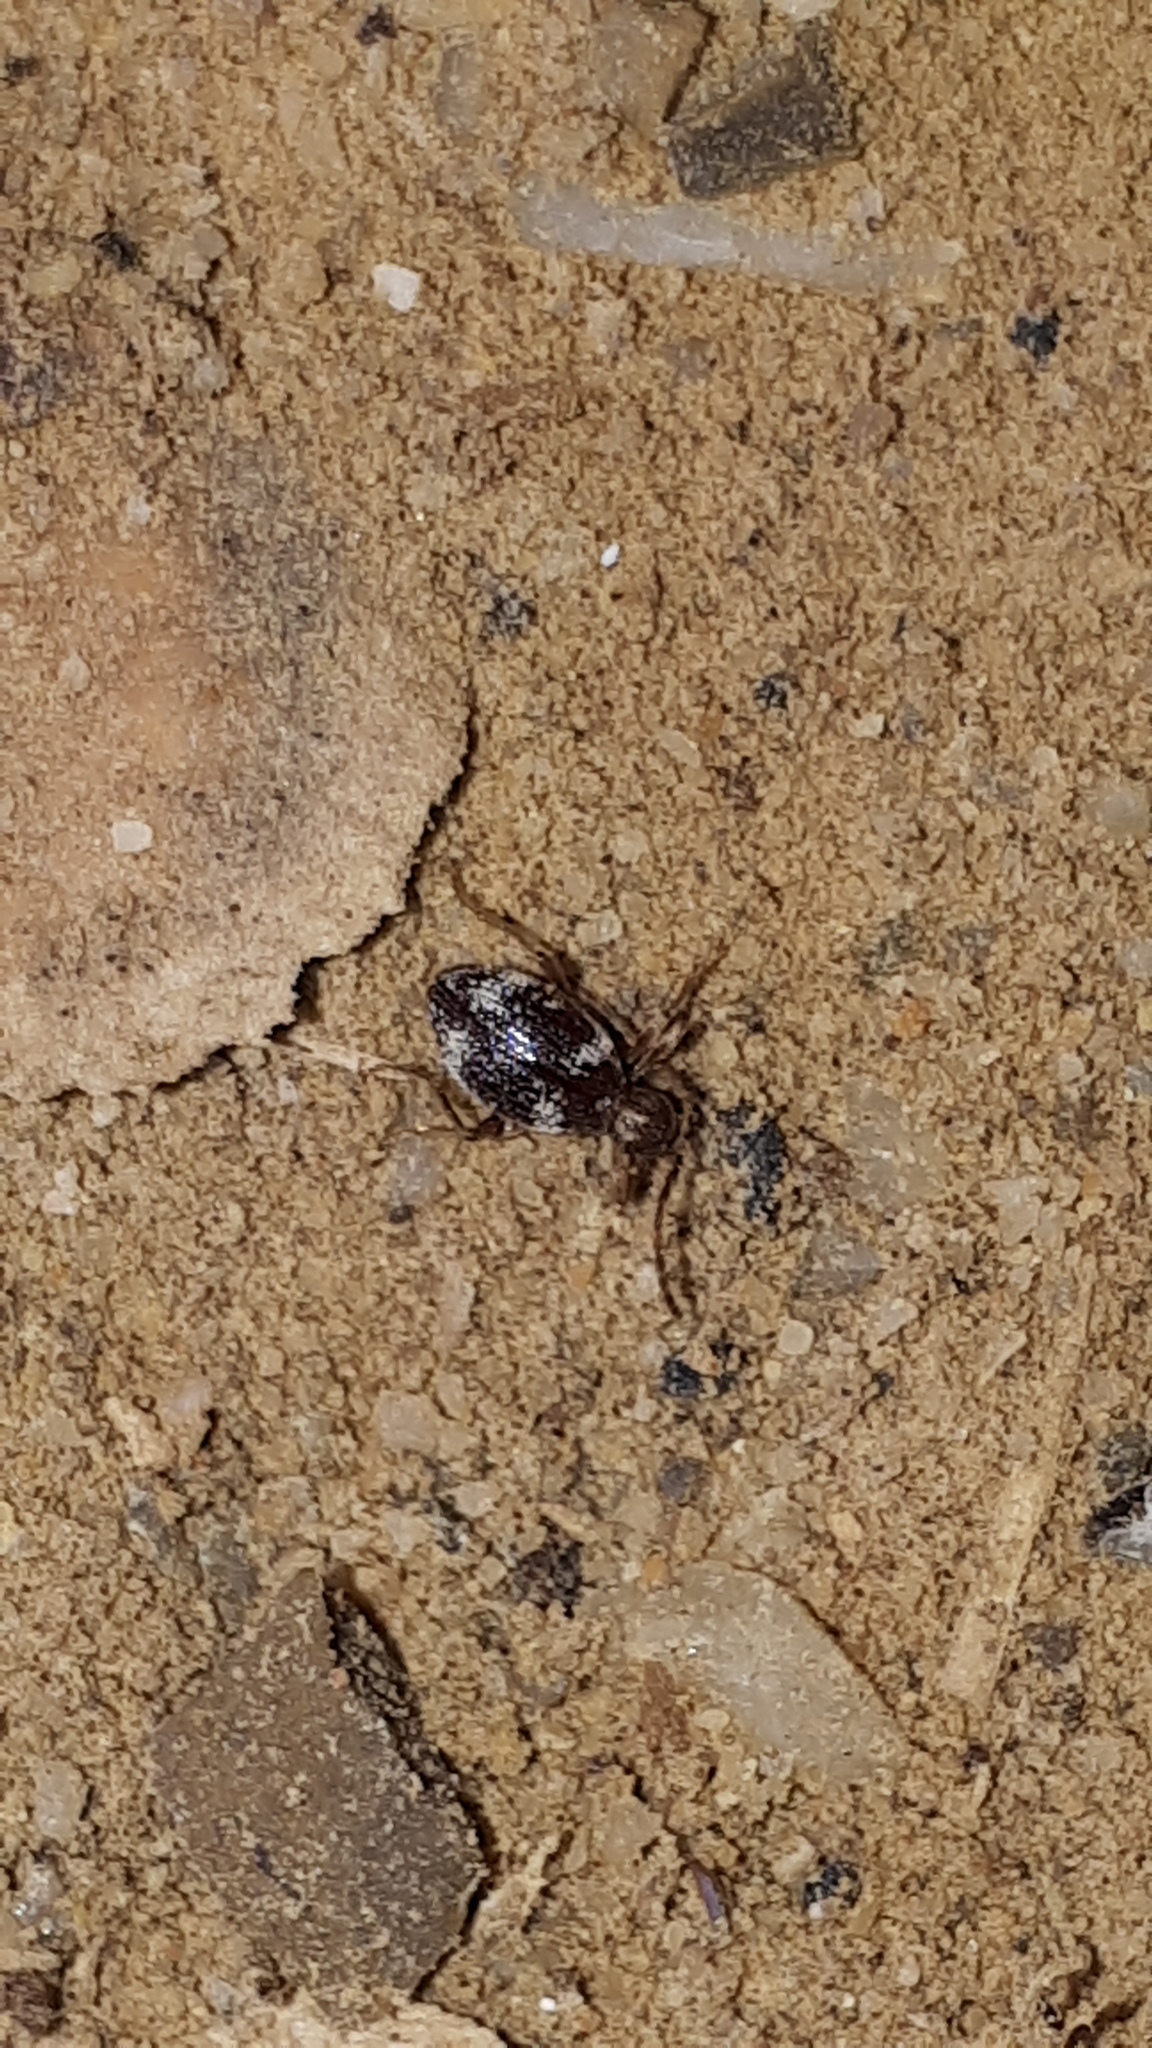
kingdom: Animalia
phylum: Arthropoda
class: Insecta
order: Coleoptera
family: Ptinidae
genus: Ptinus
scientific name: Ptinus fur
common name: White-marked spider beetle
